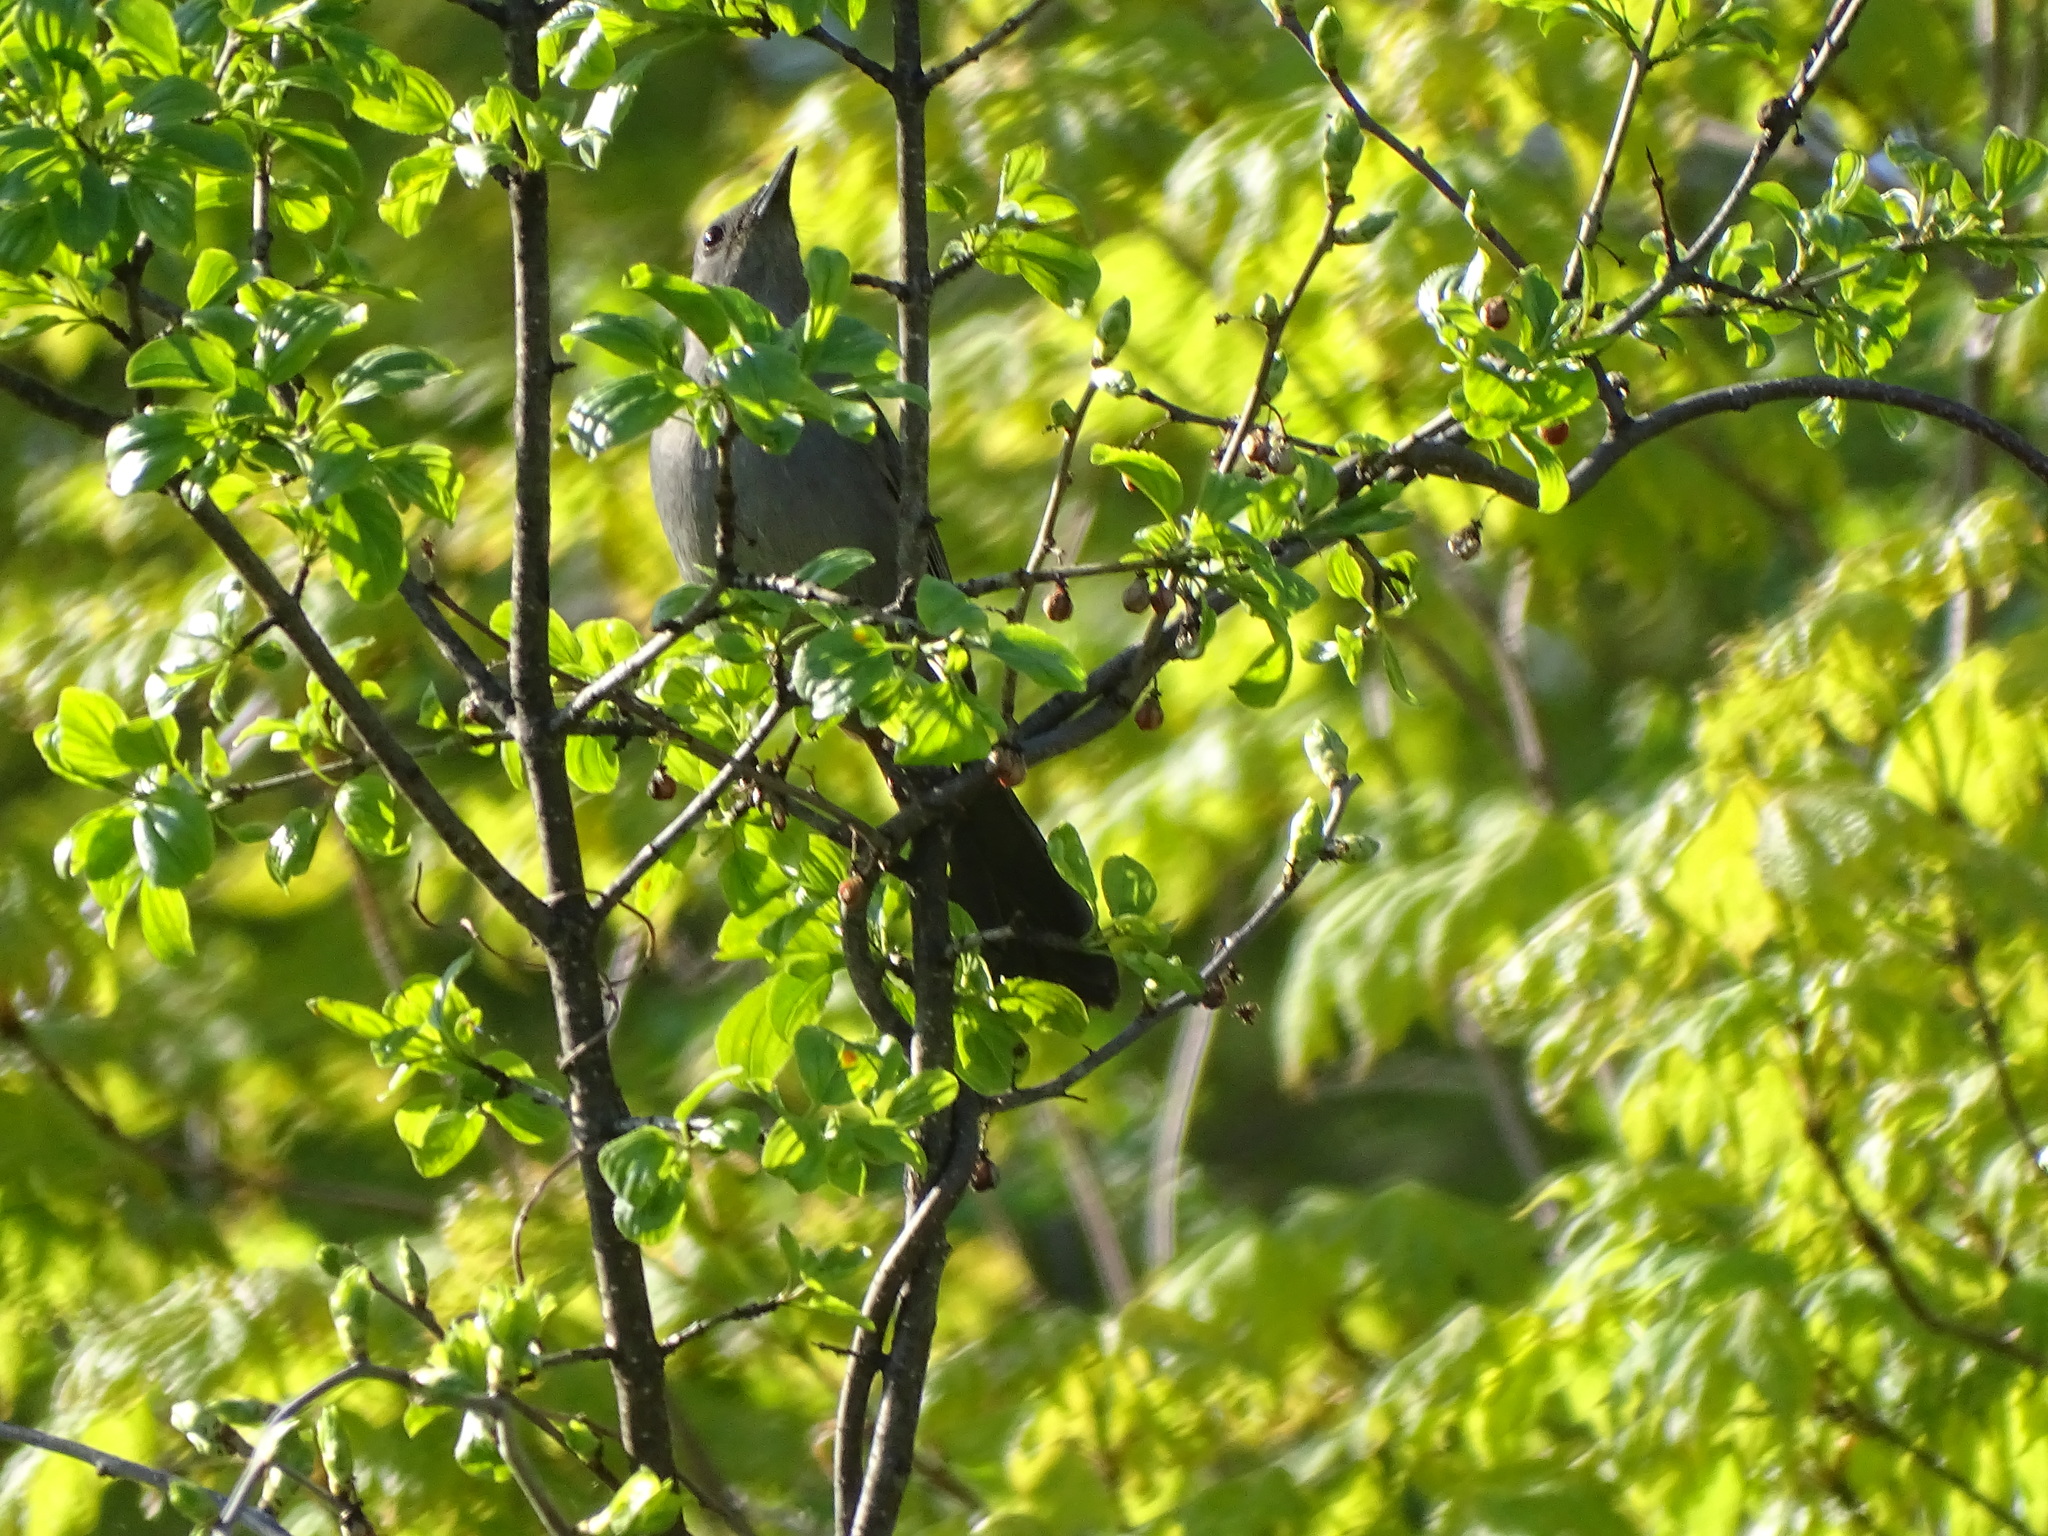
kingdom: Animalia
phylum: Chordata
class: Aves
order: Passeriformes
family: Mimidae
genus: Dumetella
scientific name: Dumetella carolinensis
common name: Gray catbird
